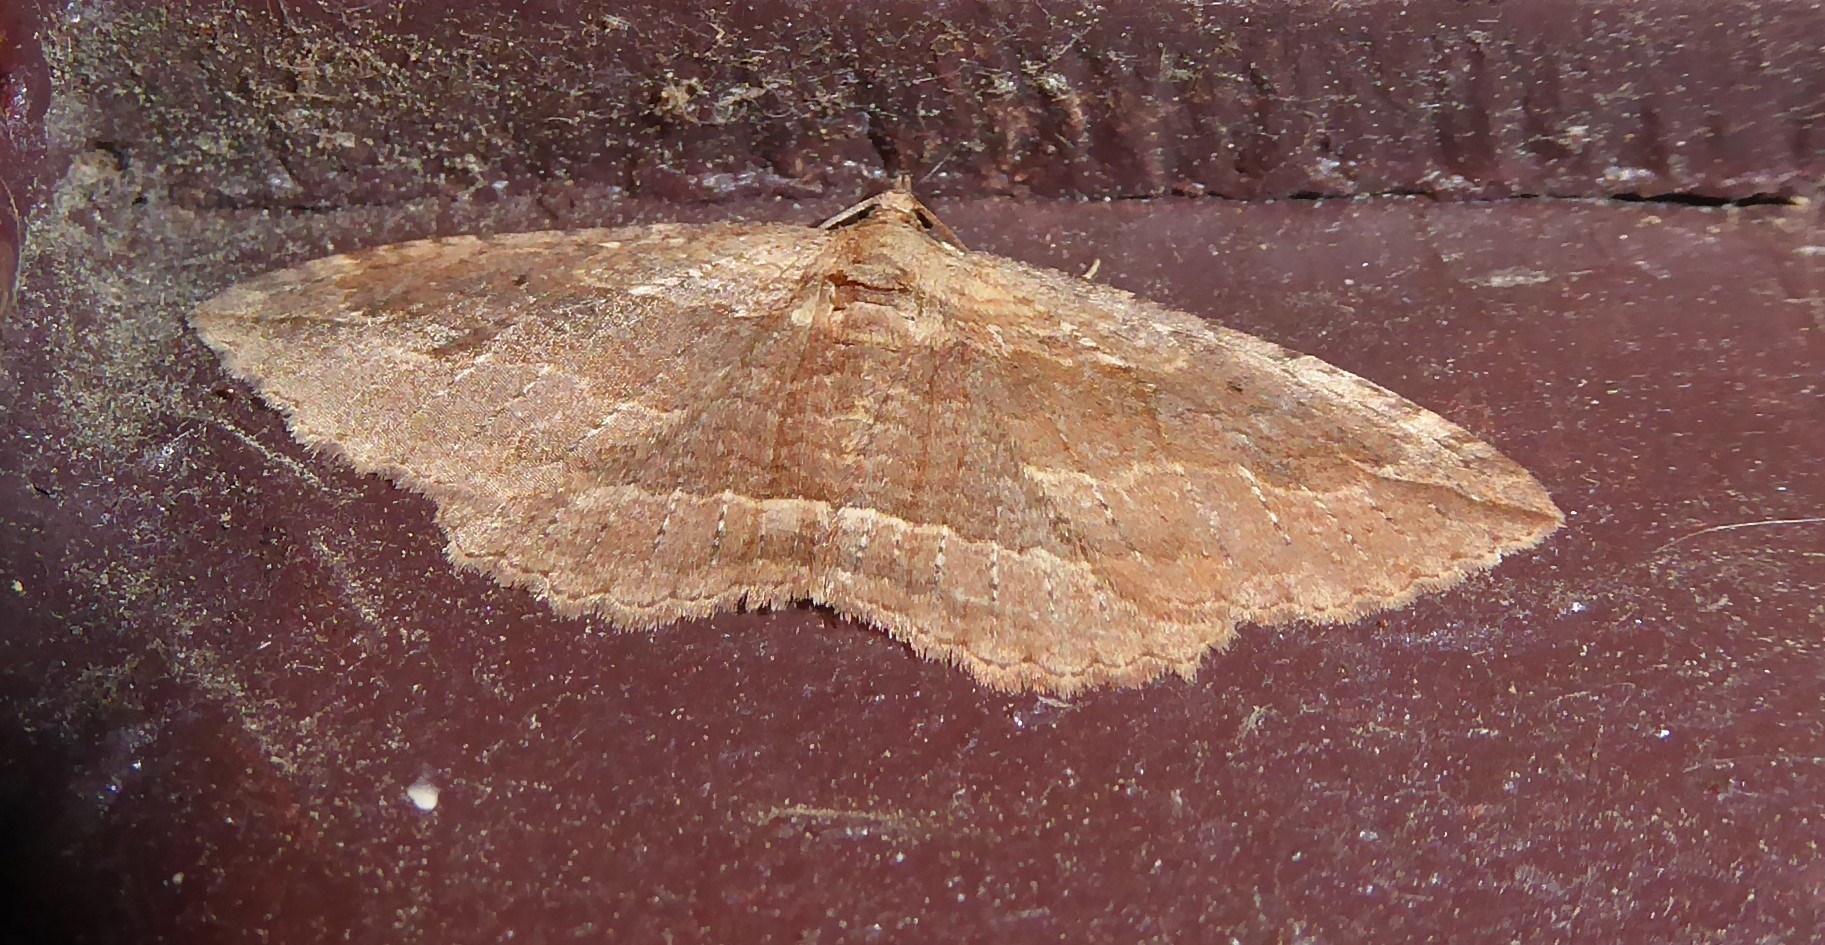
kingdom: Animalia
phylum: Arthropoda
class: Insecta
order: Lepidoptera
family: Geometridae
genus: Austrocidaria
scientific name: Austrocidaria gobiata
